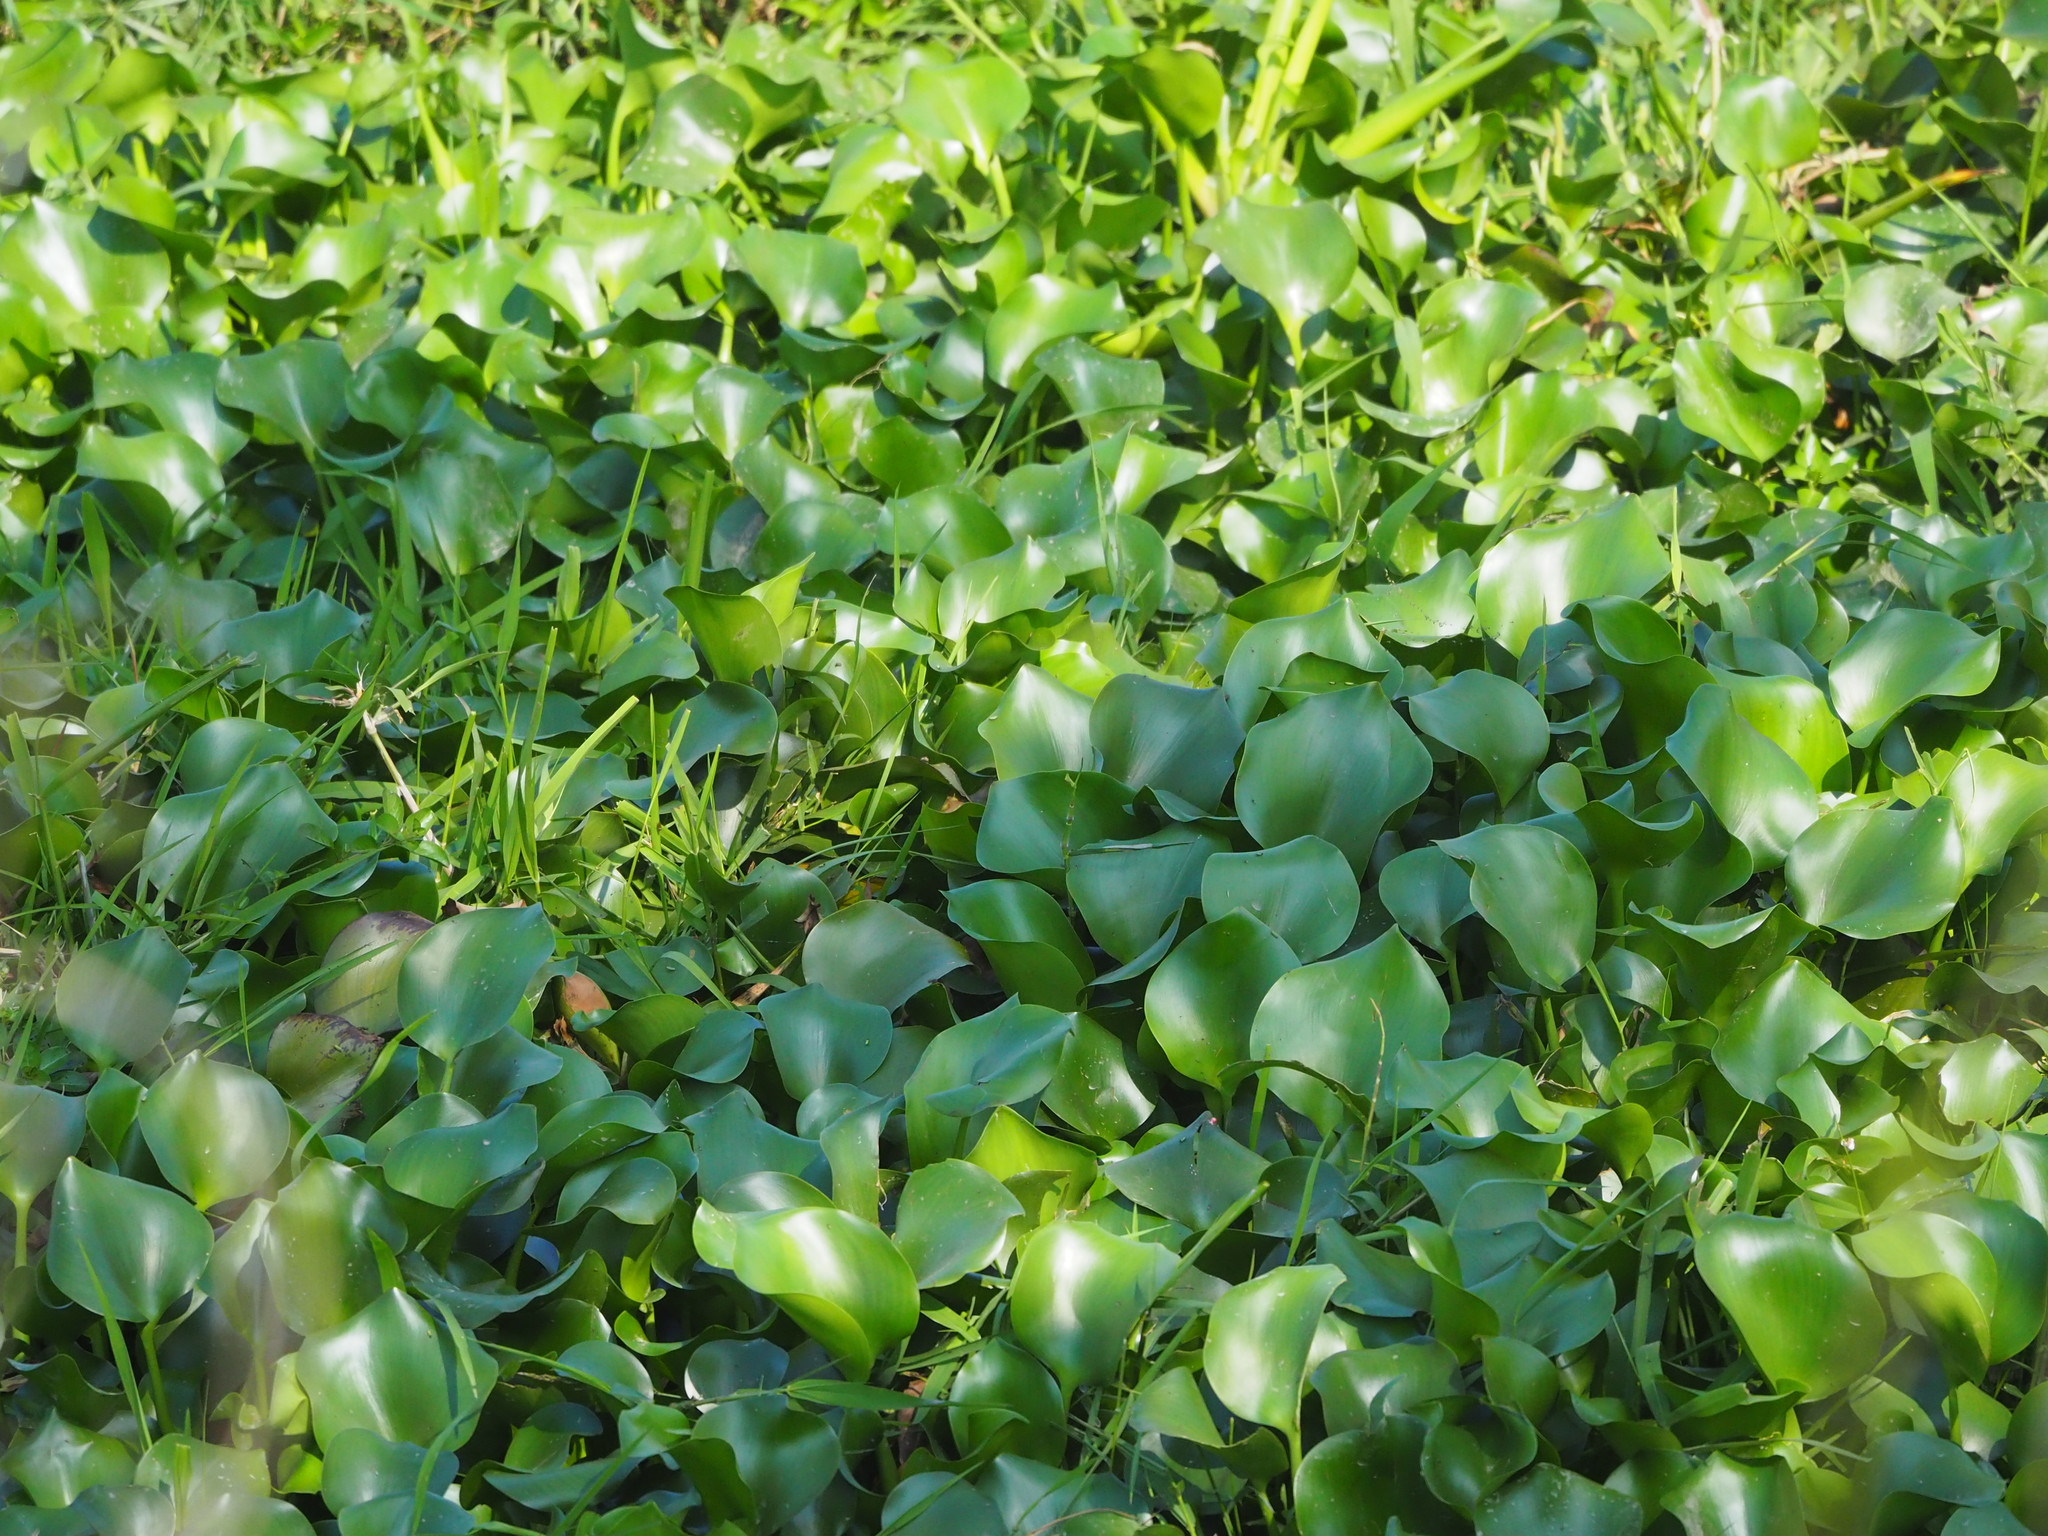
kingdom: Plantae
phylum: Tracheophyta
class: Liliopsida
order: Commelinales
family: Pontederiaceae
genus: Pontederia
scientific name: Pontederia crassipes
